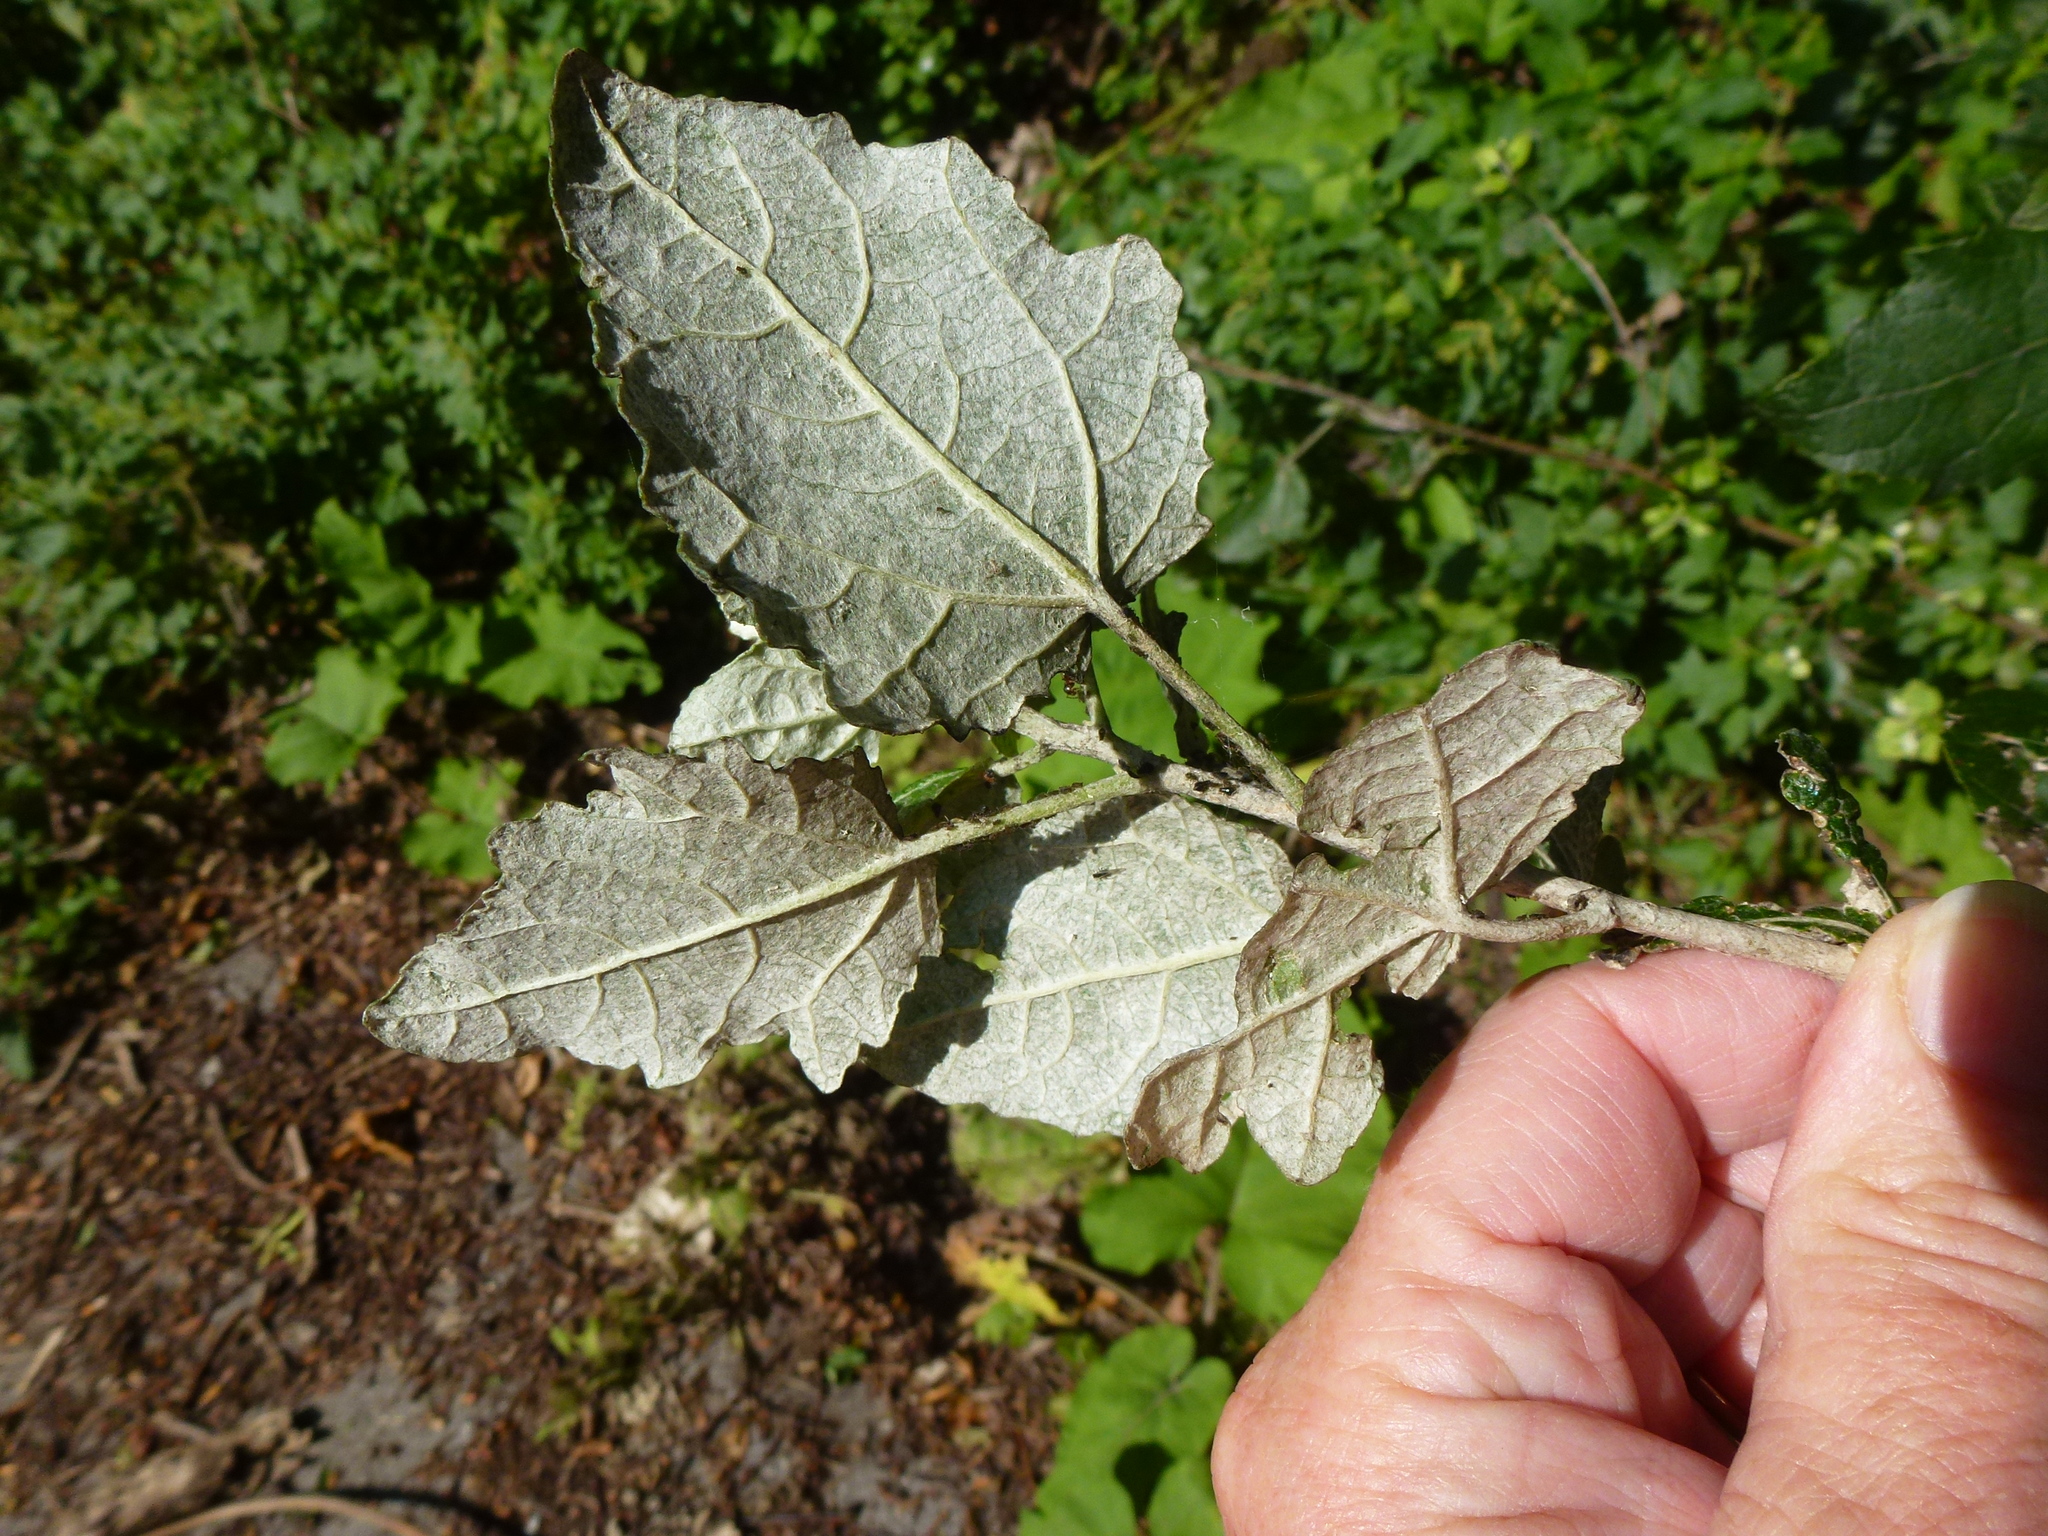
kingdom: Plantae
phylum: Tracheophyta
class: Magnoliopsida
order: Malpighiales
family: Salicaceae
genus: Populus
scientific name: Populus alba
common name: White poplar
